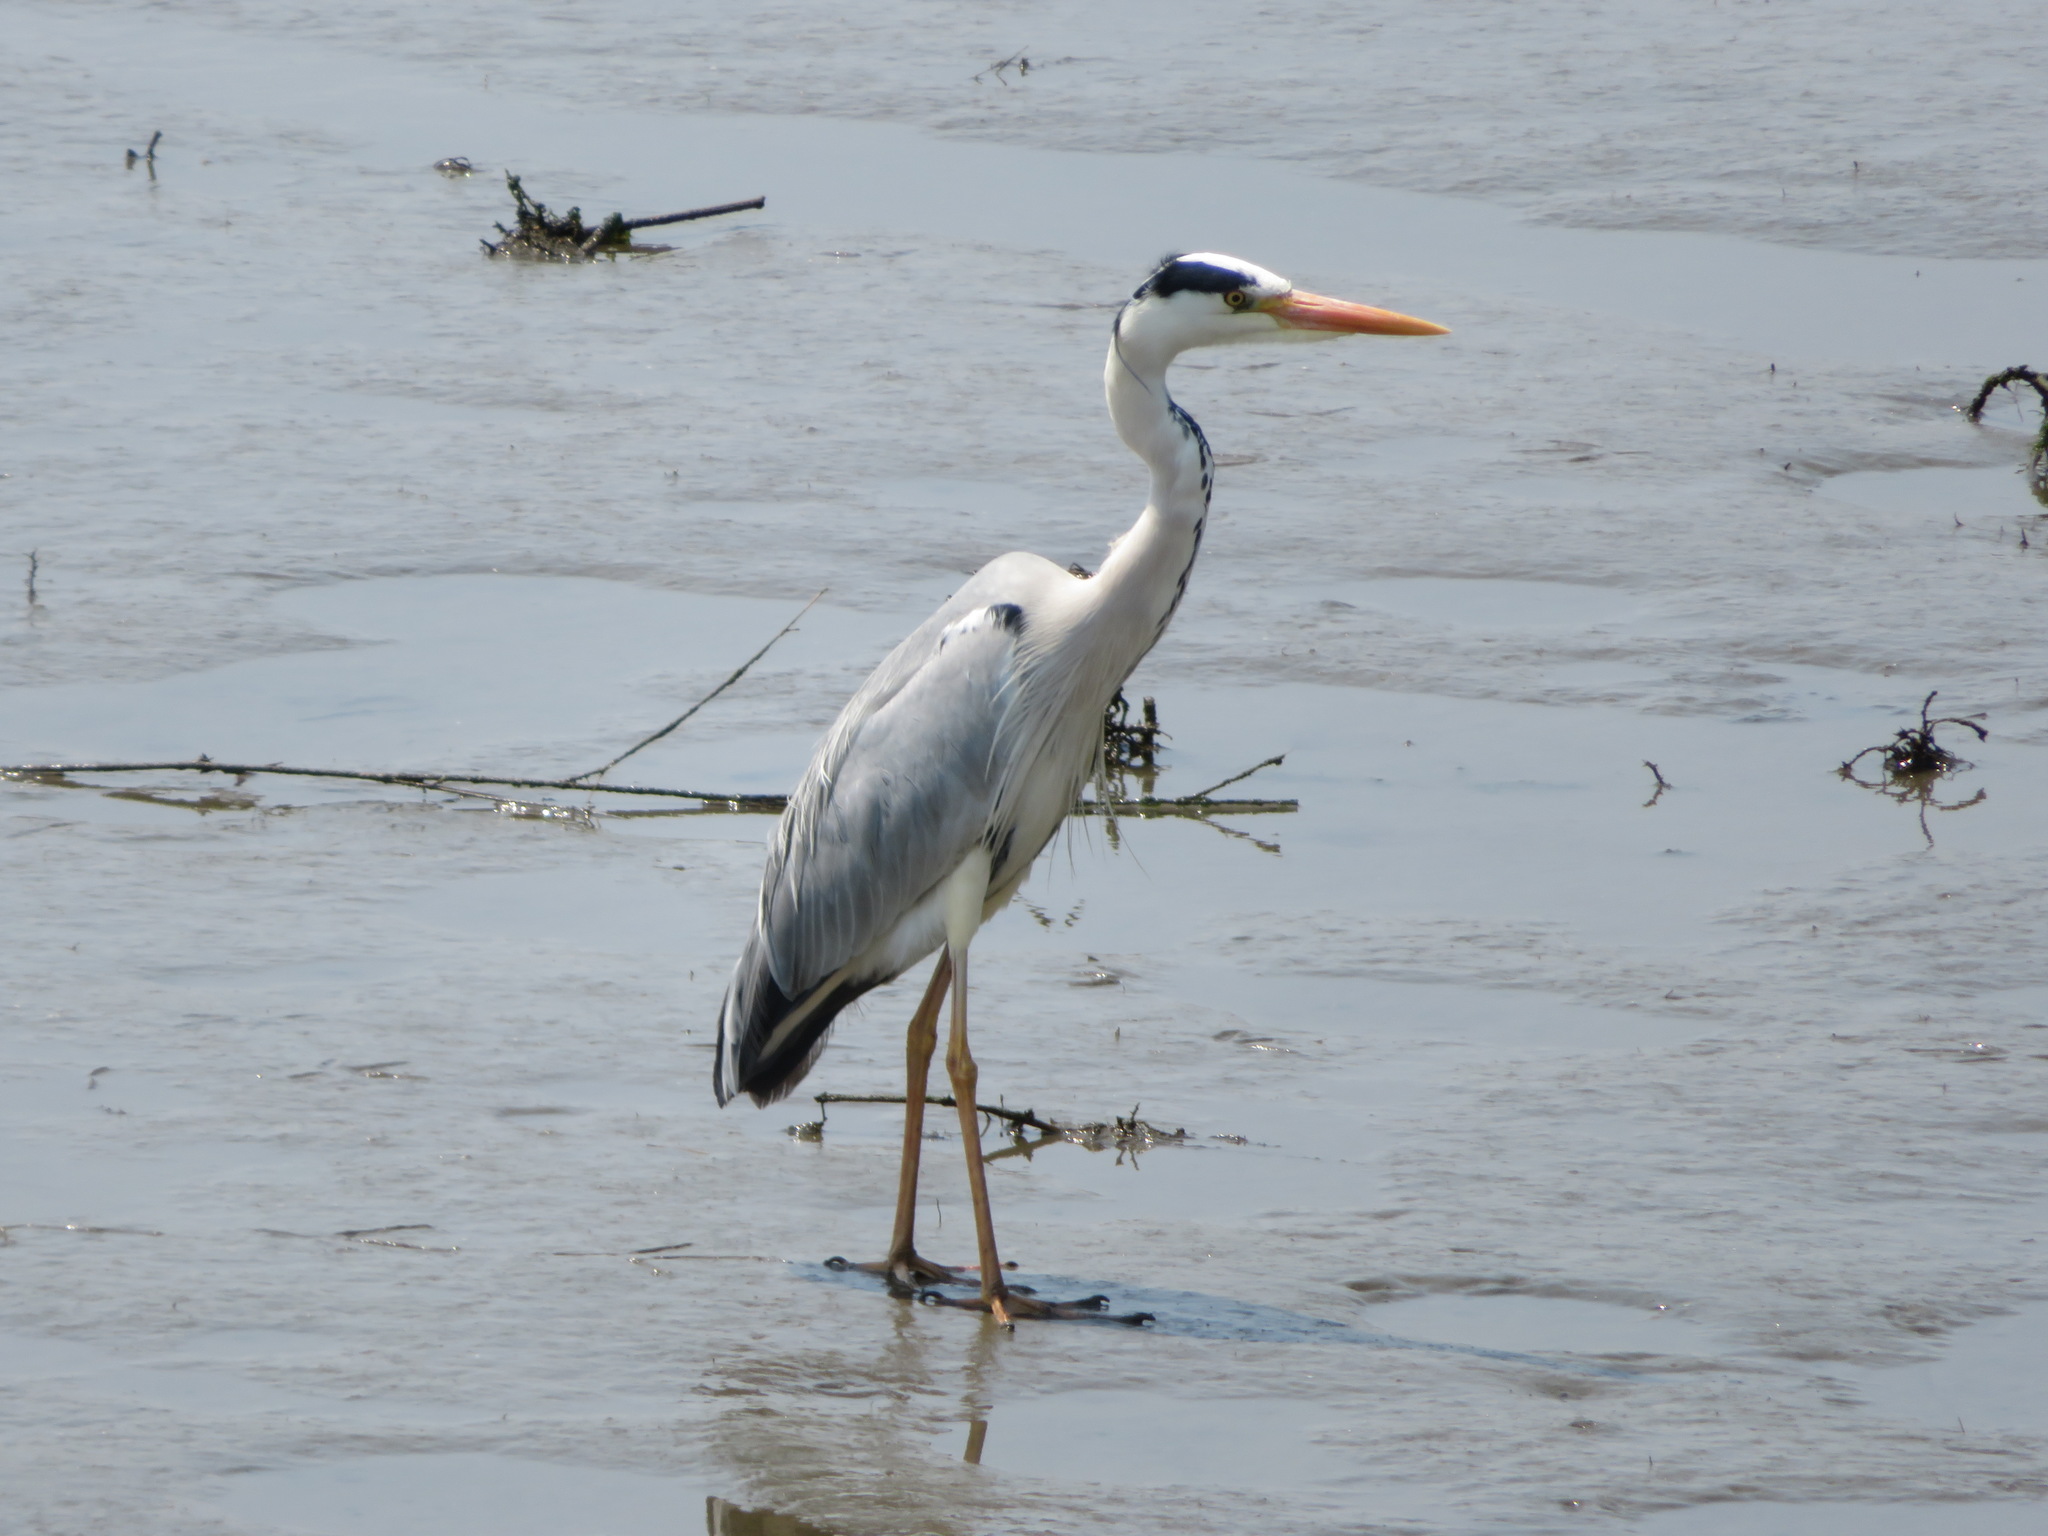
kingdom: Animalia
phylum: Chordata
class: Aves
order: Pelecaniformes
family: Ardeidae
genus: Ardea
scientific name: Ardea cinerea
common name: Grey heron
